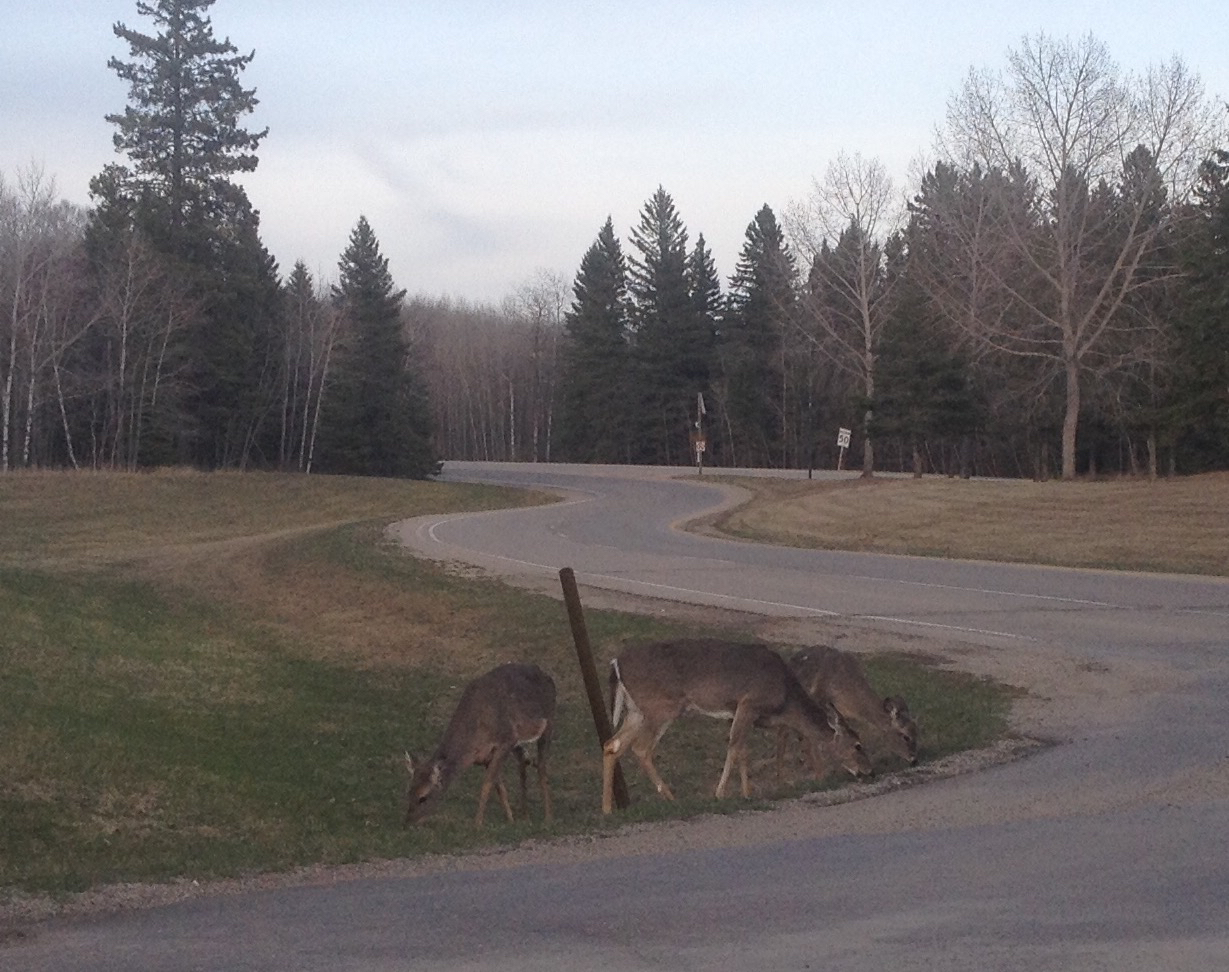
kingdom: Animalia
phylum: Chordata
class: Mammalia
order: Artiodactyla
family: Cervidae
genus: Odocoileus
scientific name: Odocoileus virginianus
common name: White-tailed deer
